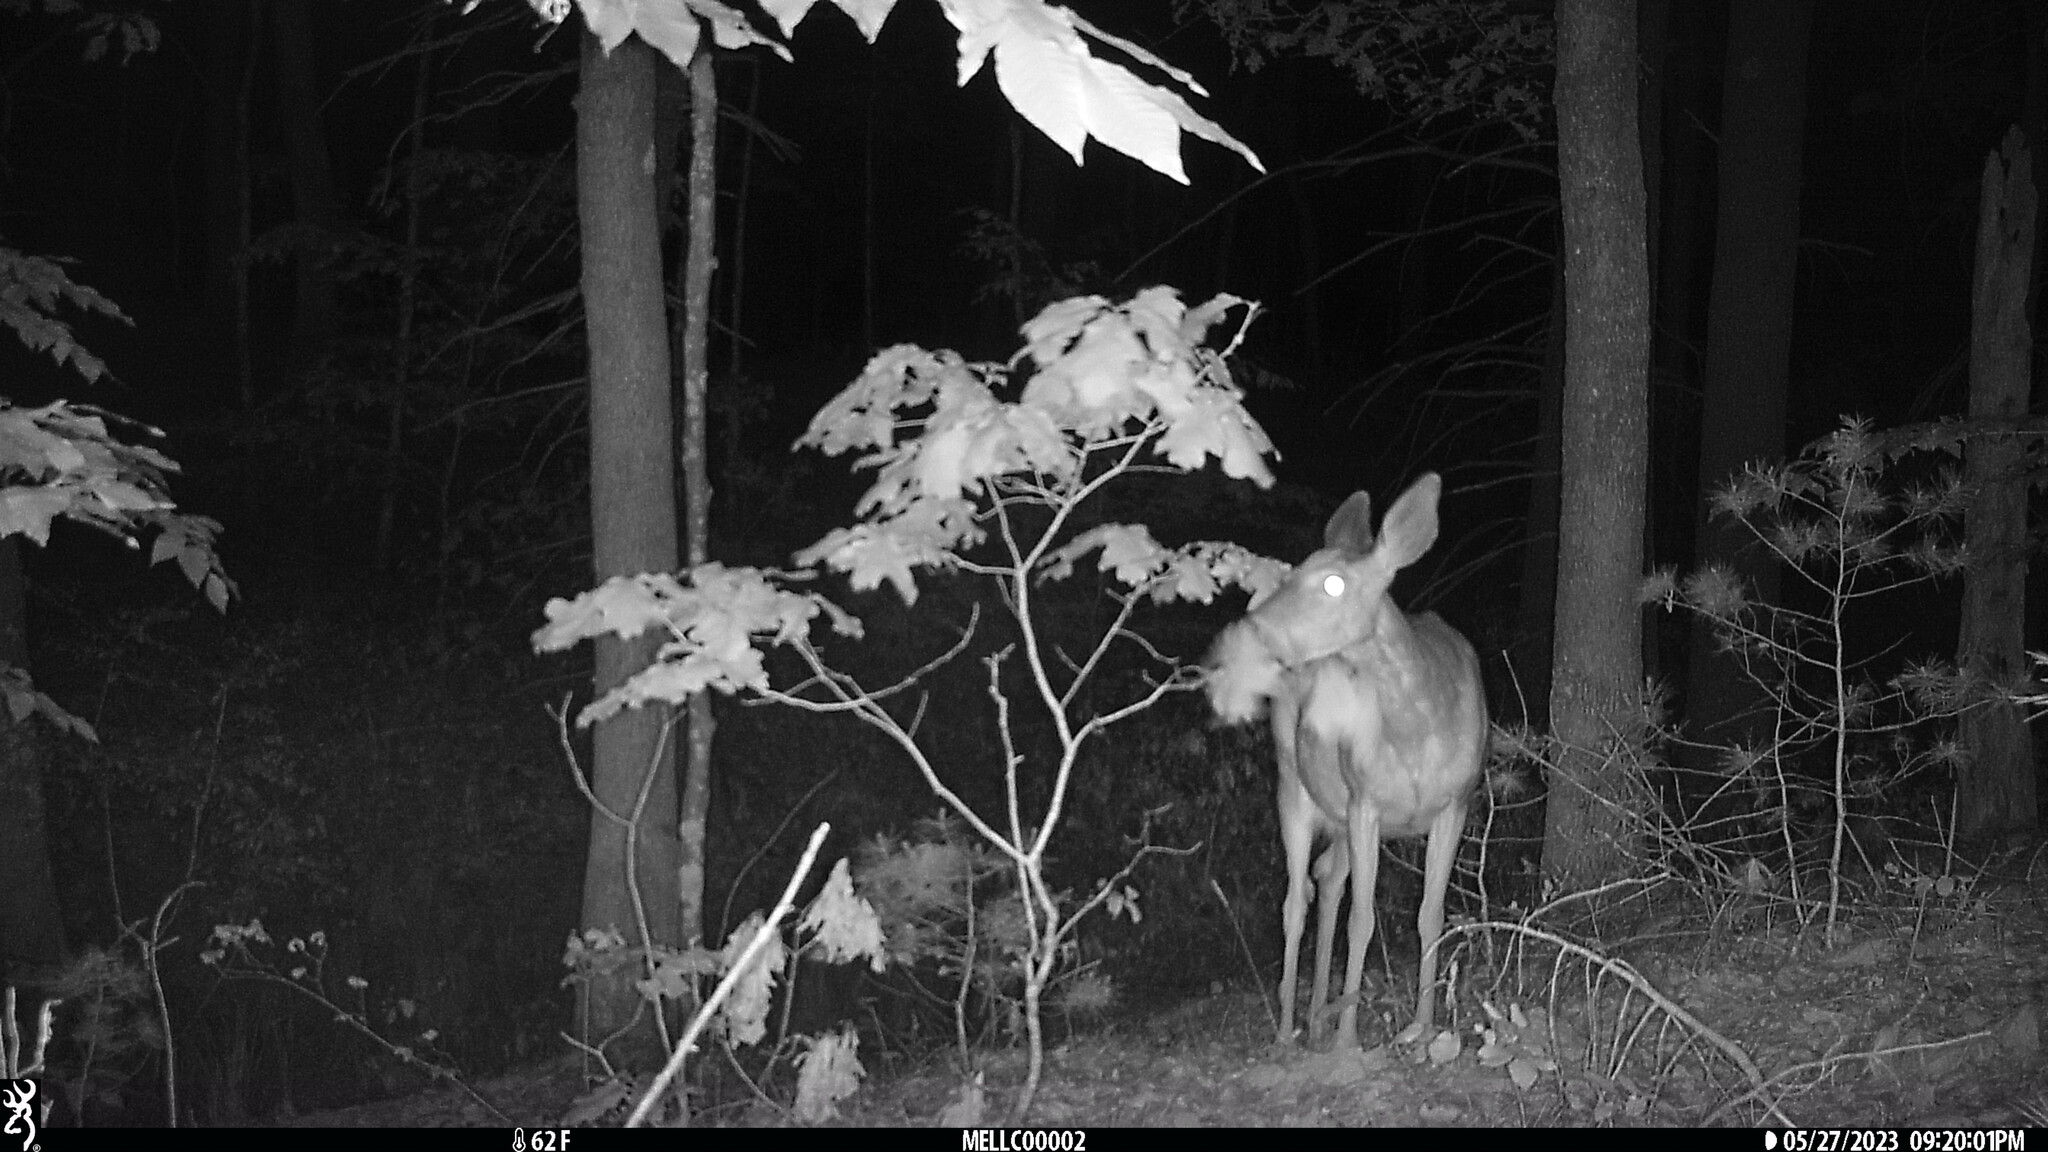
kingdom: Animalia
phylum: Chordata
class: Mammalia
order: Artiodactyla
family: Cervidae
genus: Odocoileus
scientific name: Odocoileus virginianus
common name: White-tailed deer
